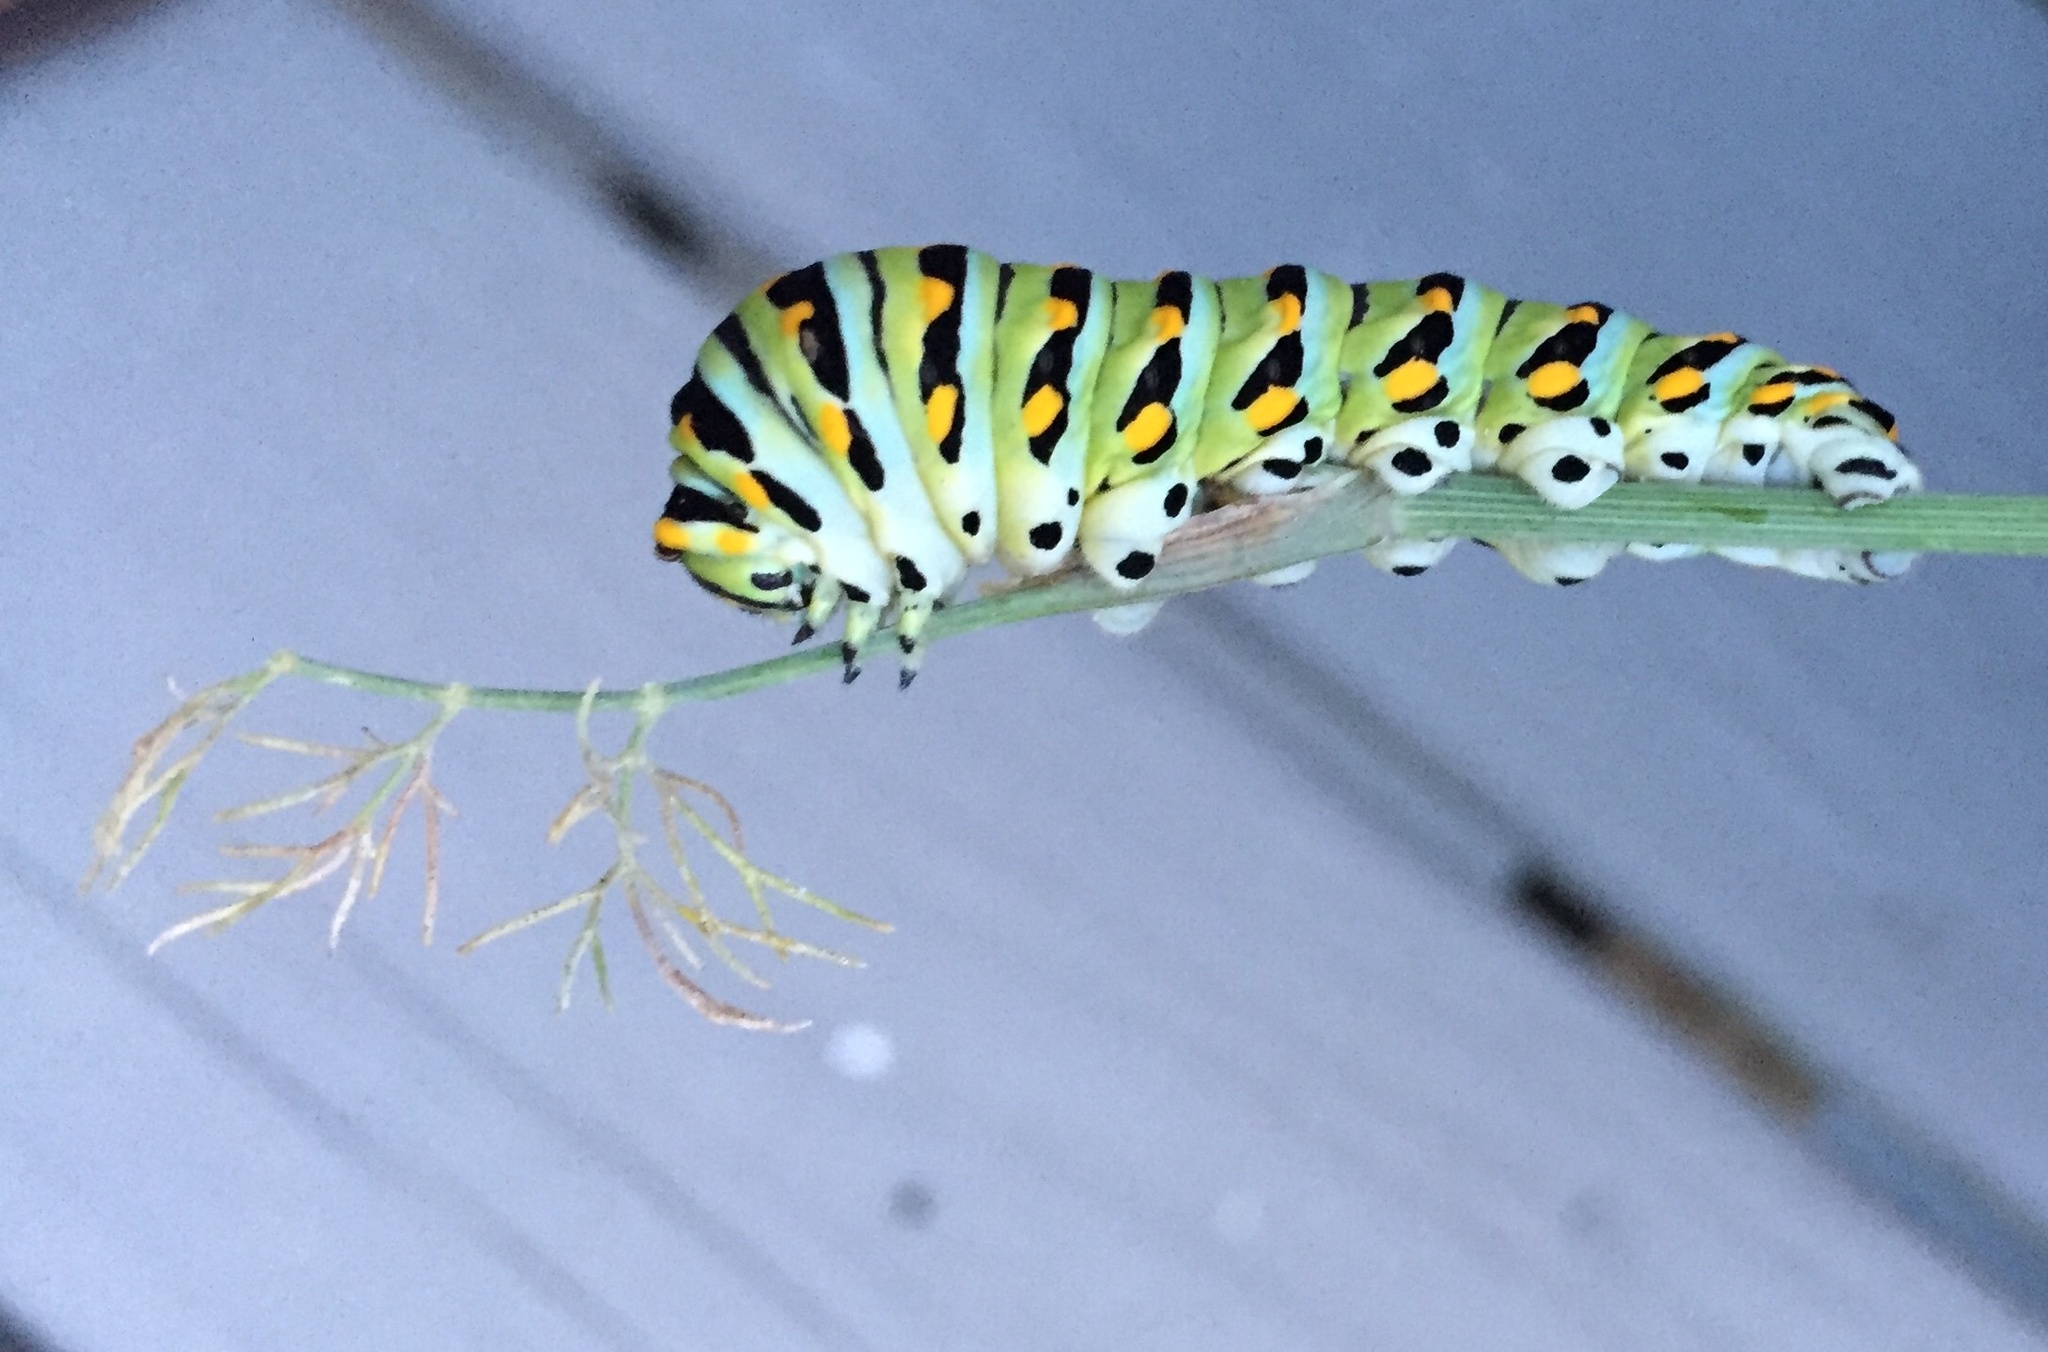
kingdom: Animalia
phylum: Arthropoda
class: Insecta
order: Lepidoptera
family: Papilionidae
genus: Papilio
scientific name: Papilio polyxenes
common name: Black swallowtail
